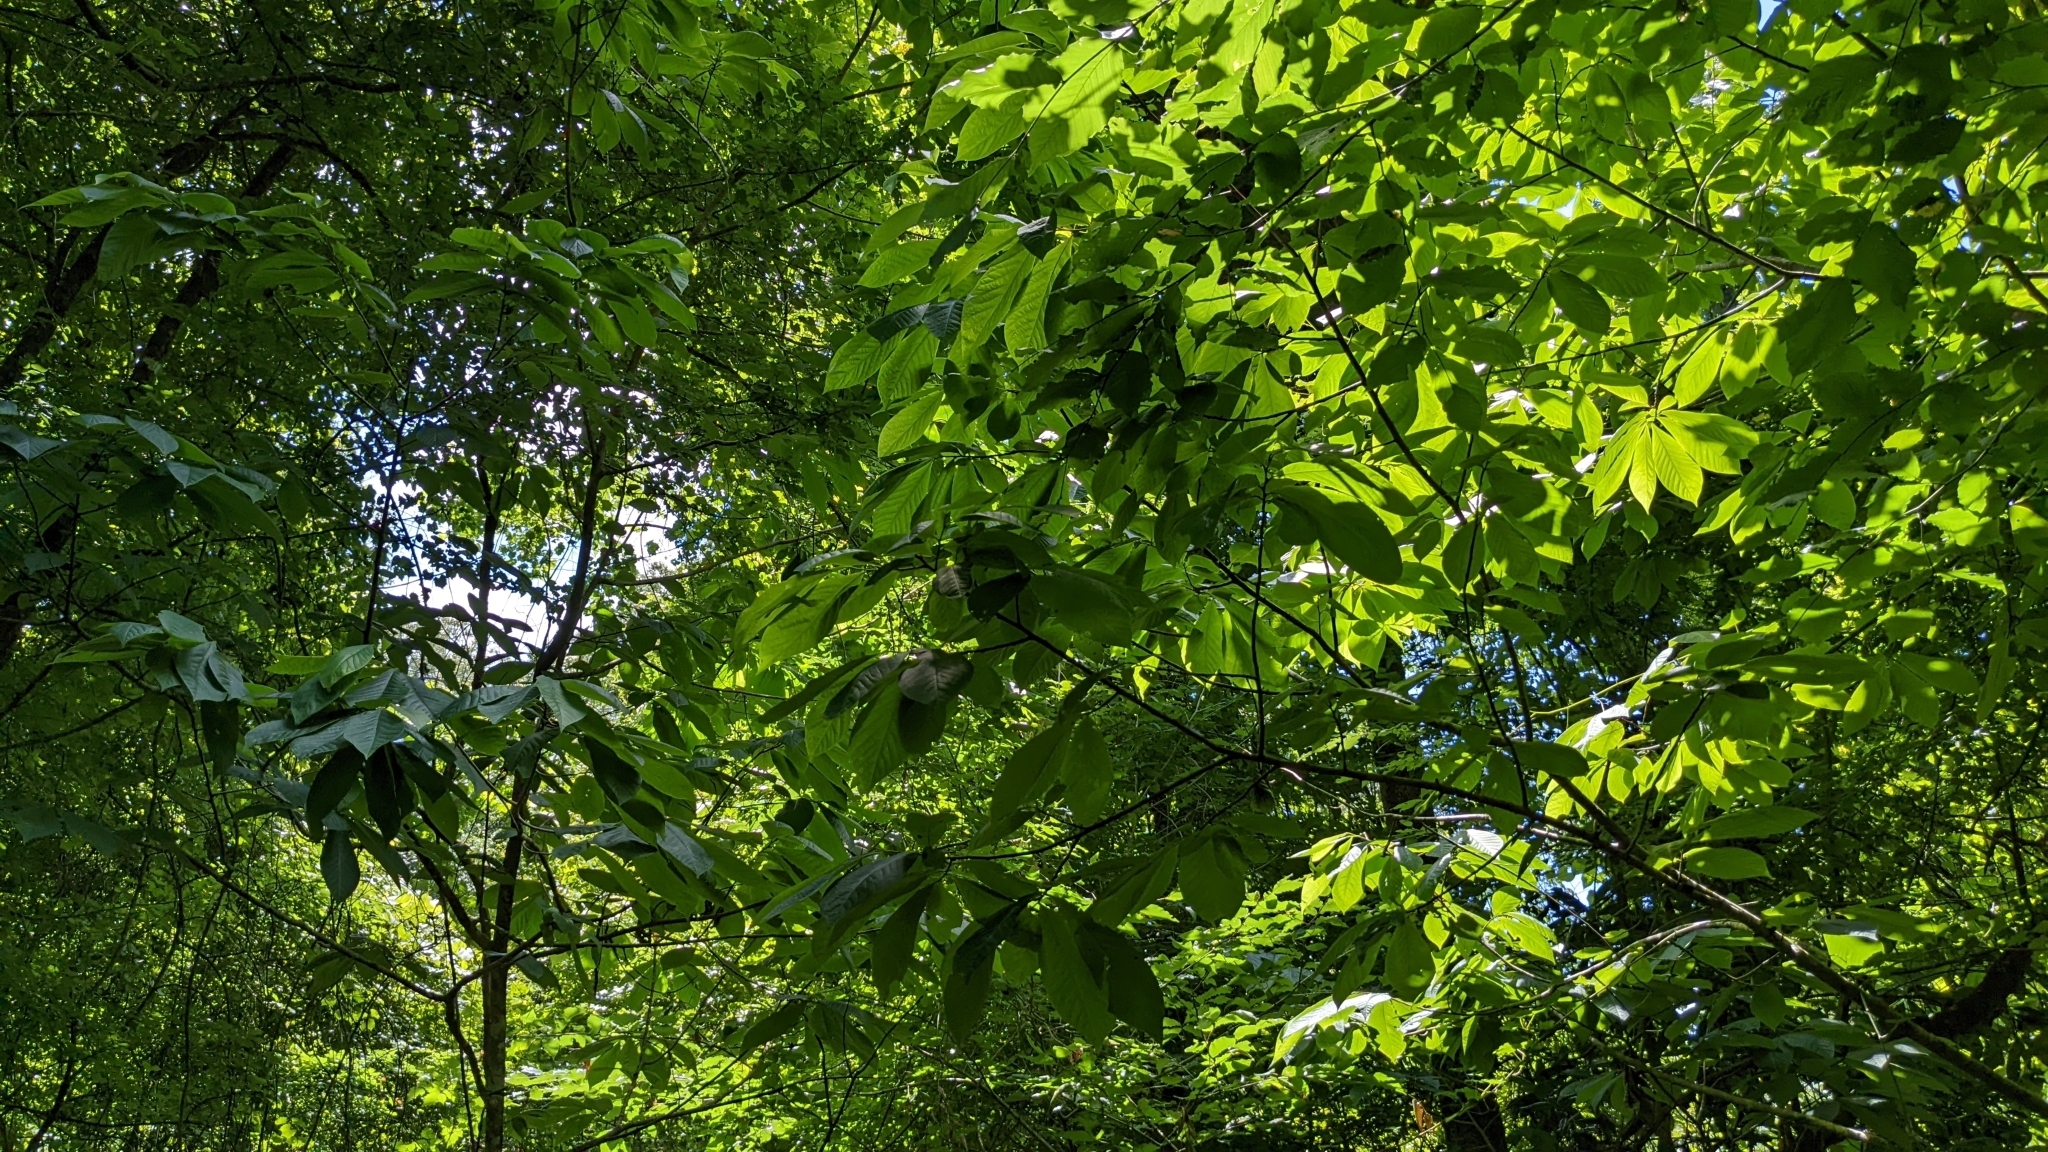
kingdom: Plantae
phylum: Tracheophyta
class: Magnoliopsida
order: Magnoliales
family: Annonaceae
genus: Asimina
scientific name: Asimina triloba
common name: Dog-banana
